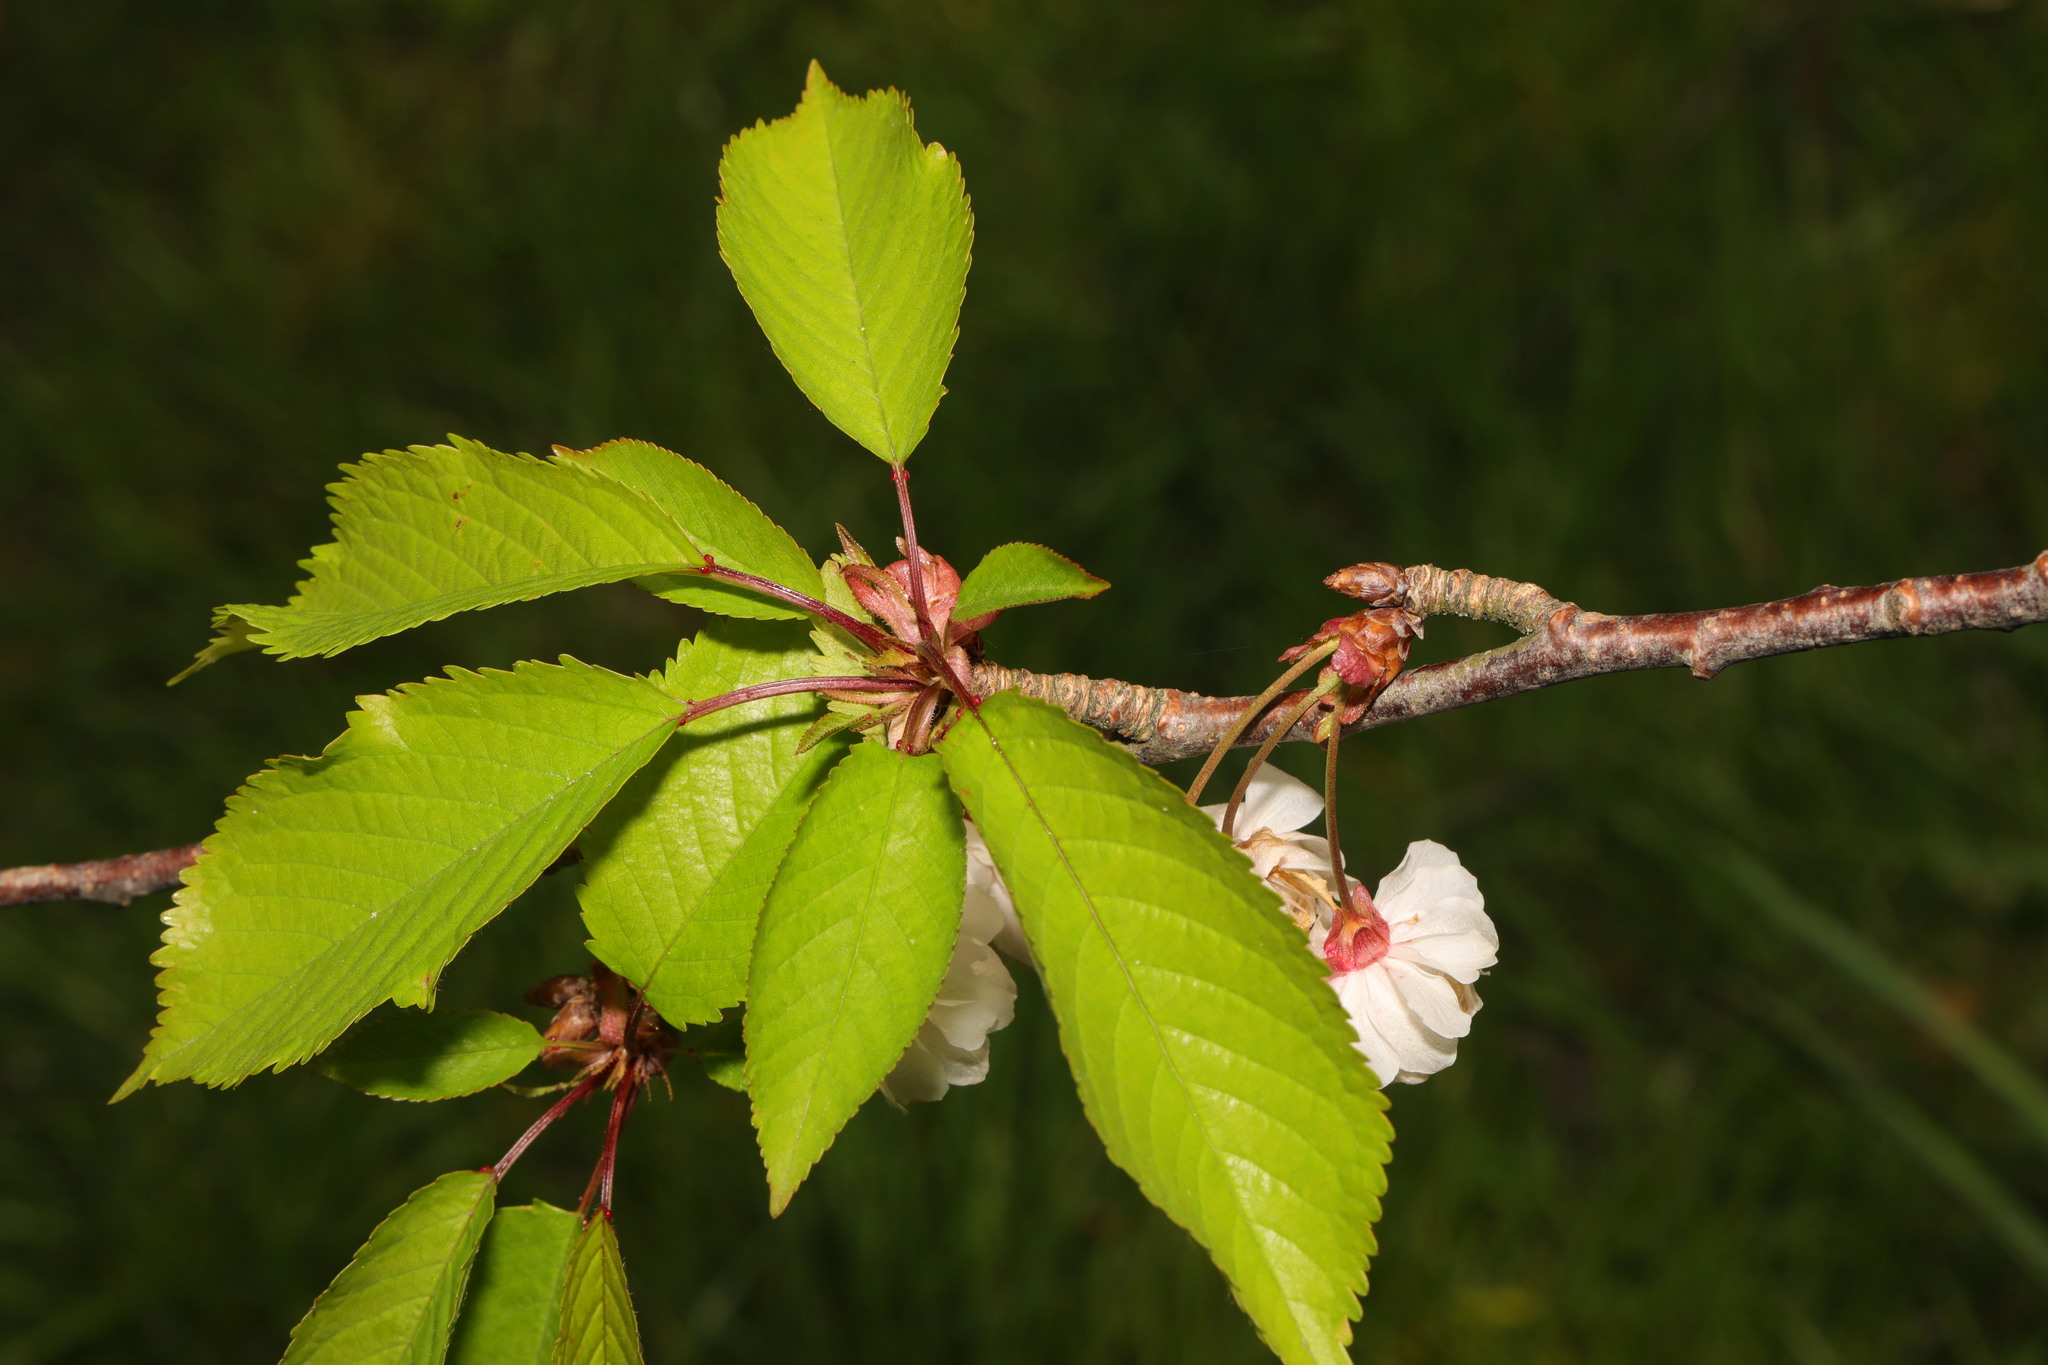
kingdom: Plantae
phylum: Tracheophyta
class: Magnoliopsida
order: Rosales
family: Rosaceae
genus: Prunus
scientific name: Prunus avium
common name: Sweet cherry
